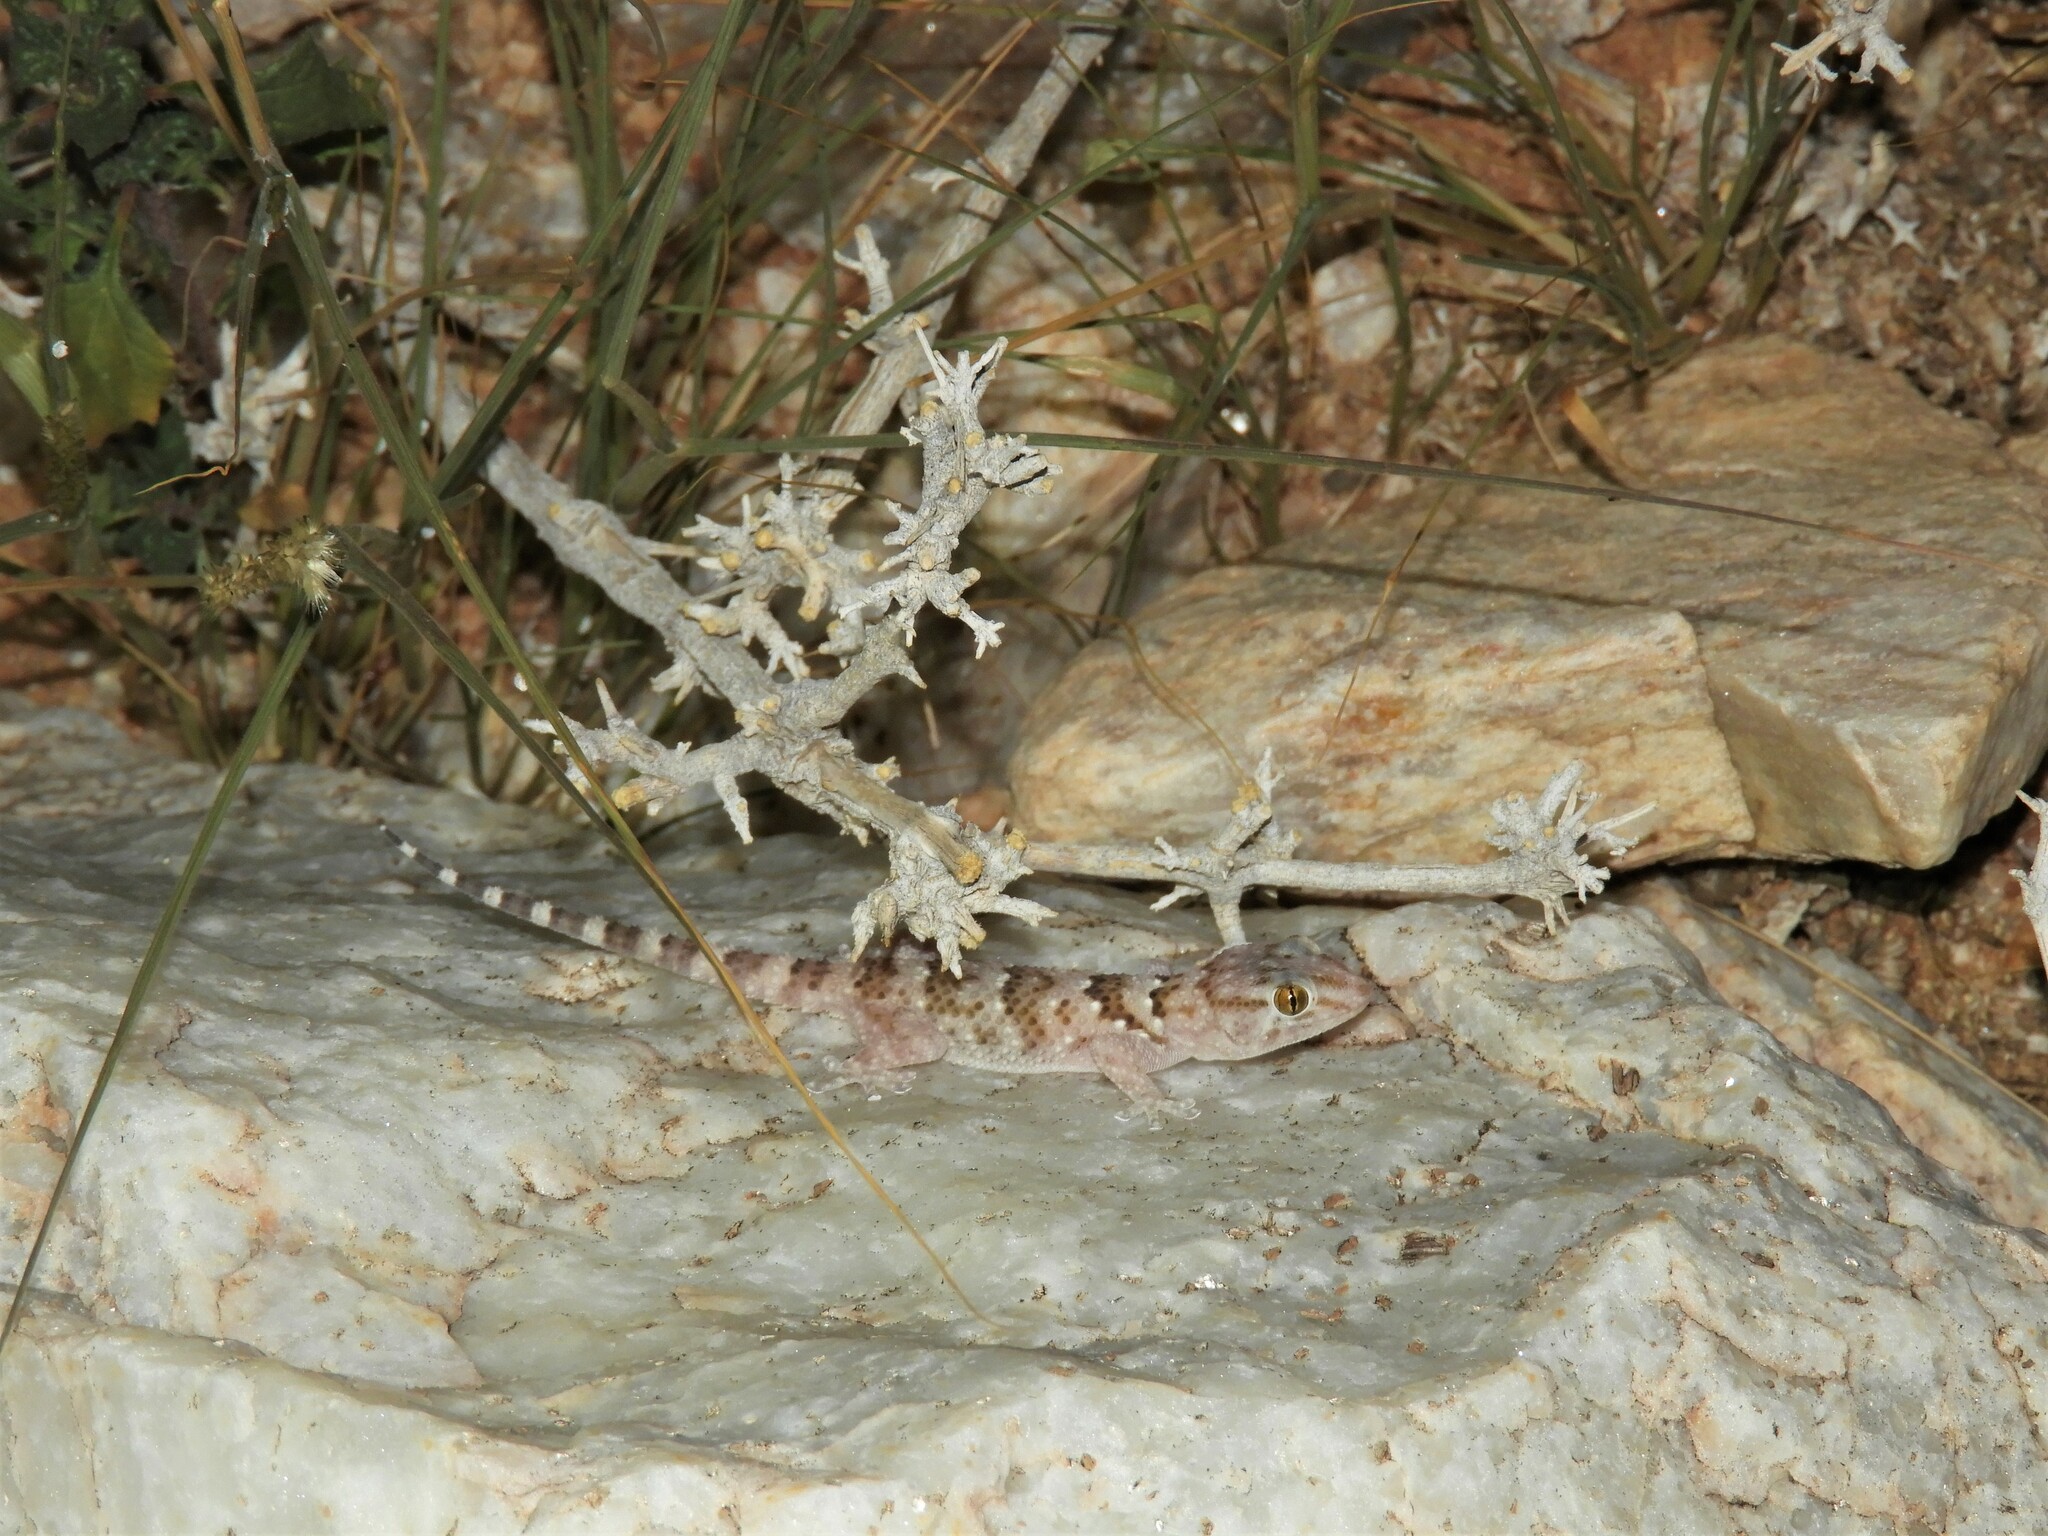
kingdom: Animalia
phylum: Chordata
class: Squamata
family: Gekkonidae
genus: Chondrodactylus
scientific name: Chondrodactylus laevigatus
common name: Fischer's thick-toed gecko
